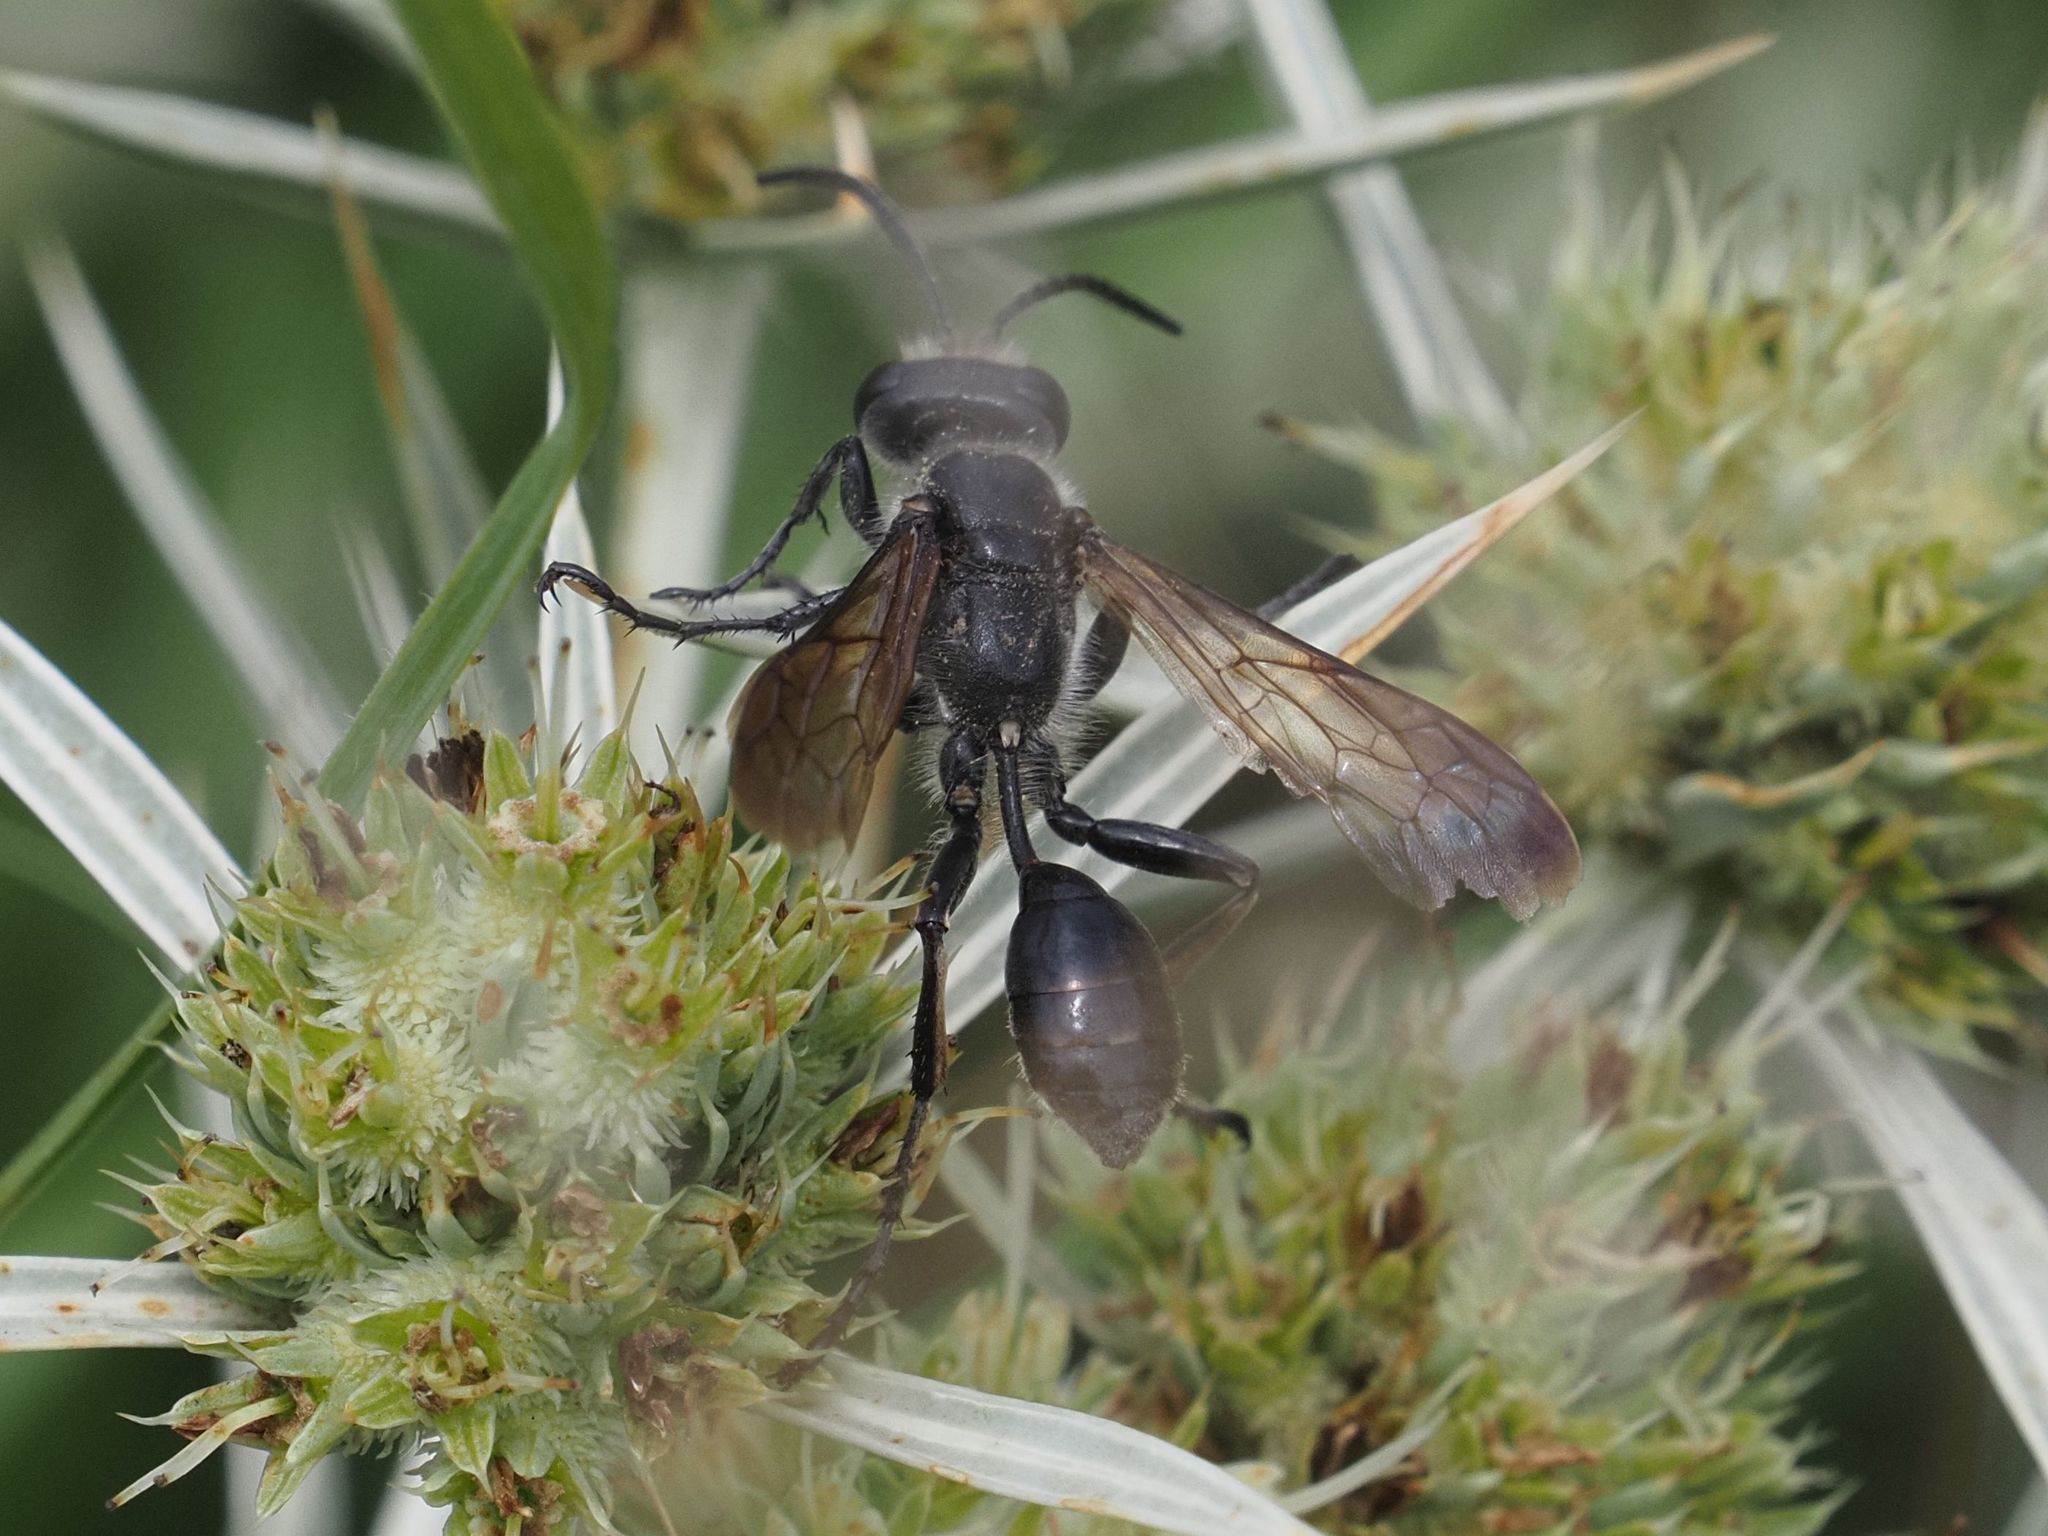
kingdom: Animalia
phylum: Arthropoda
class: Insecta
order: Hymenoptera
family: Sphecidae
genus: Isodontia
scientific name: Isodontia mexicana
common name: Mud dauber
